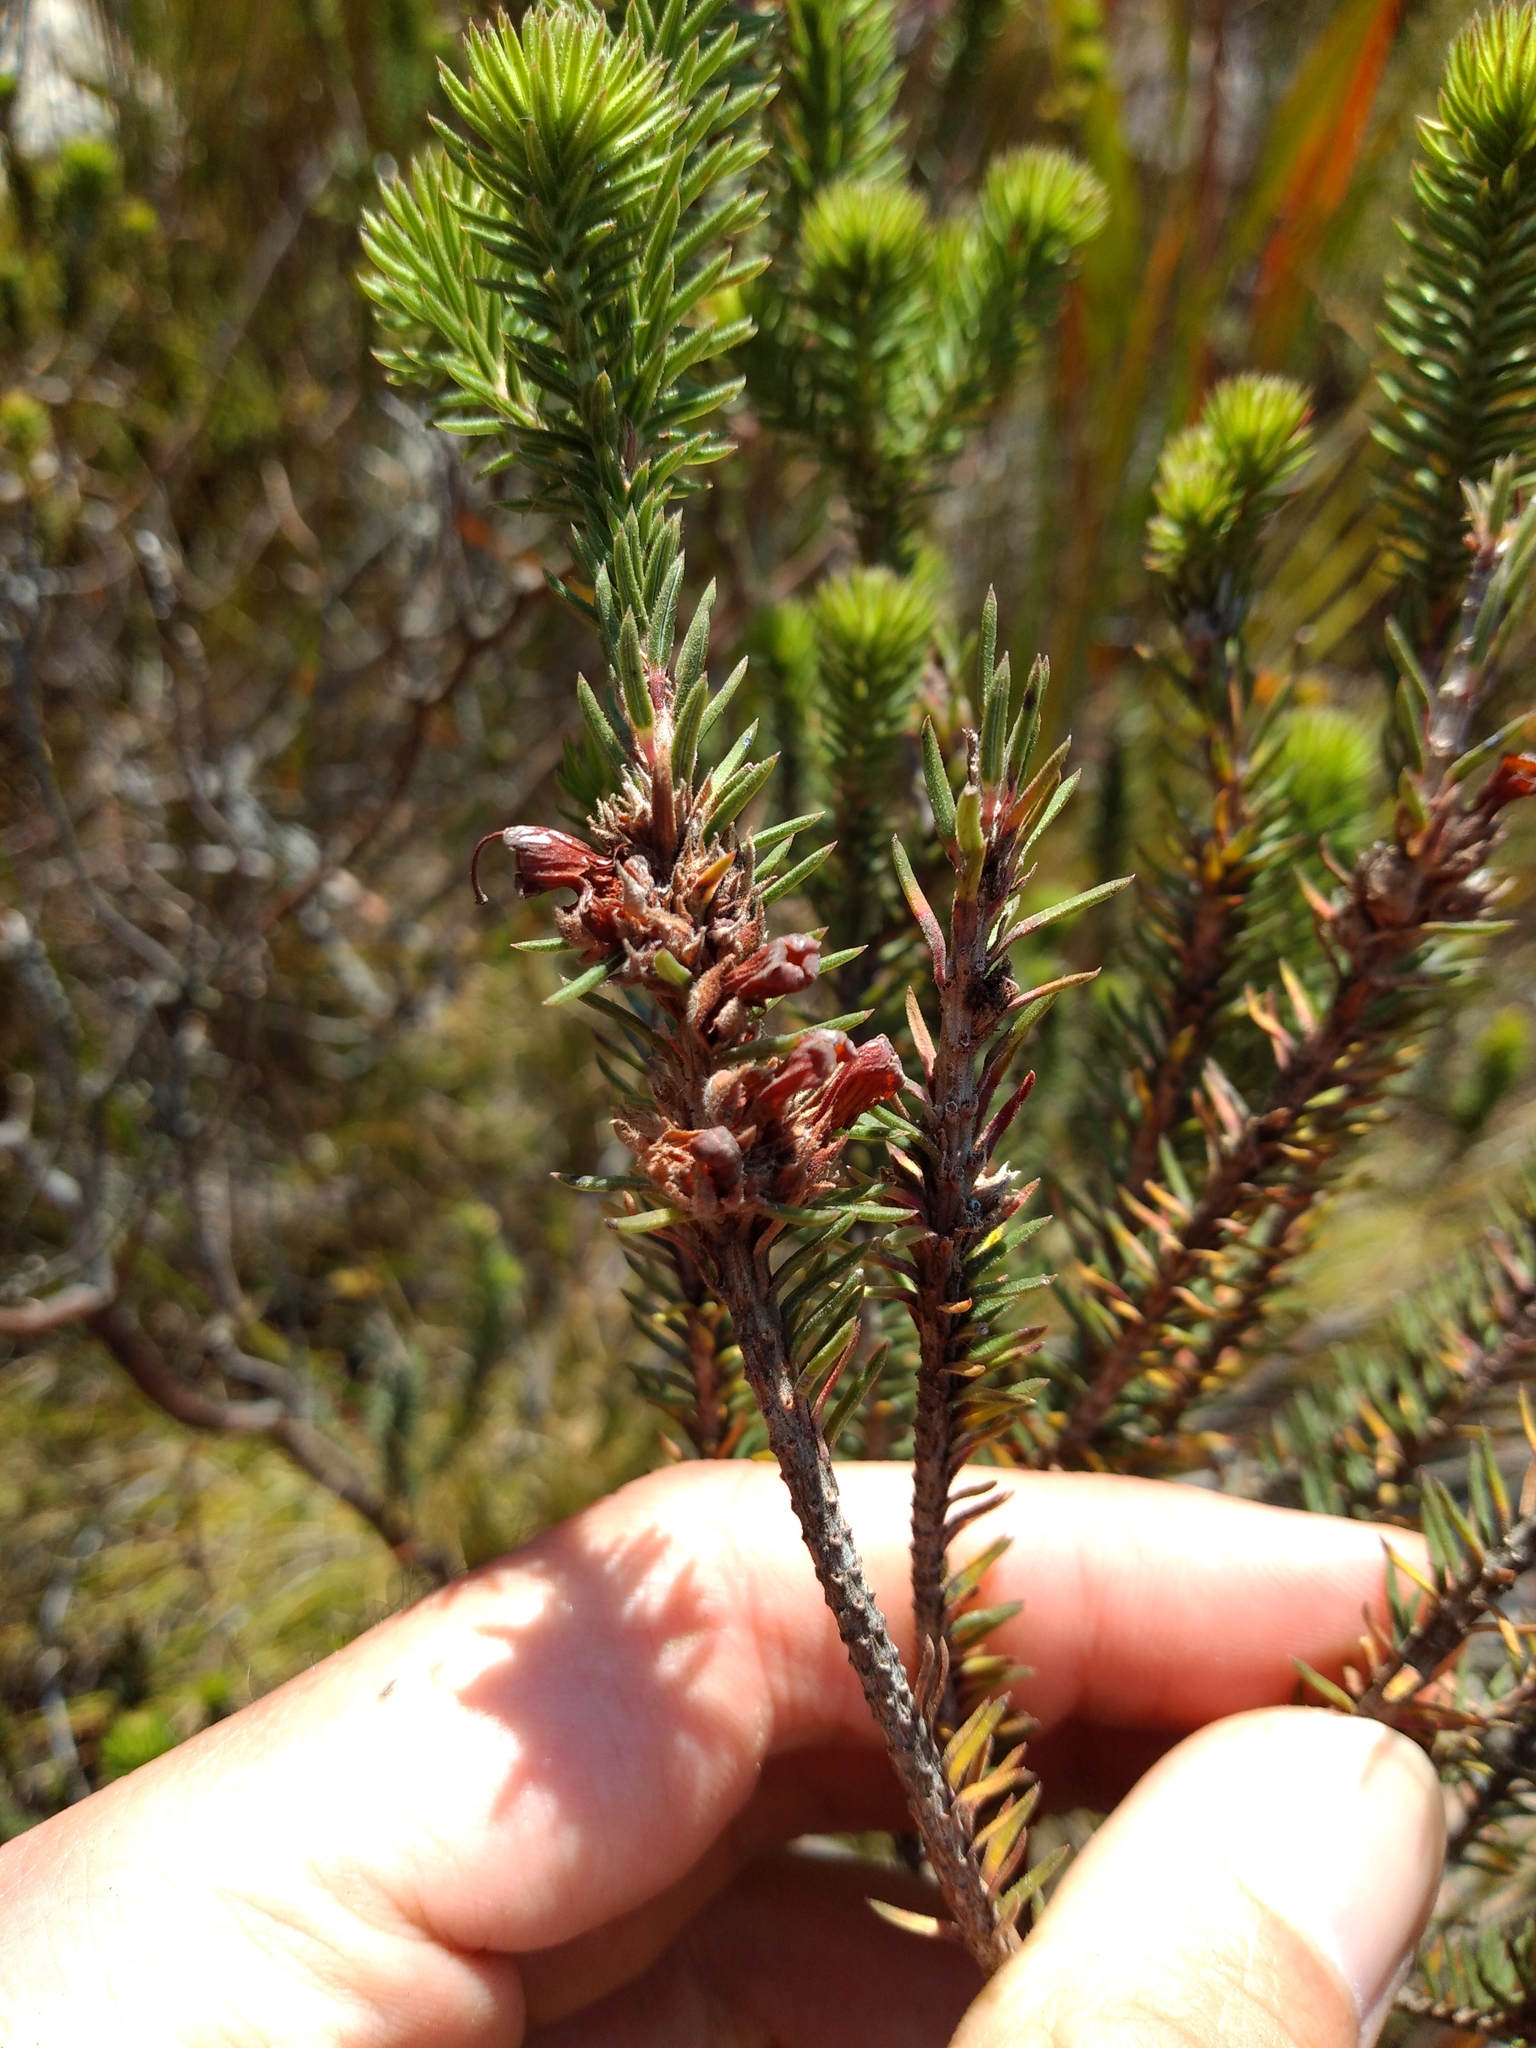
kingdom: Plantae
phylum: Tracheophyta
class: Magnoliopsida
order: Ericales
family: Ericaceae
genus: Erica
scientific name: Erica abietina
